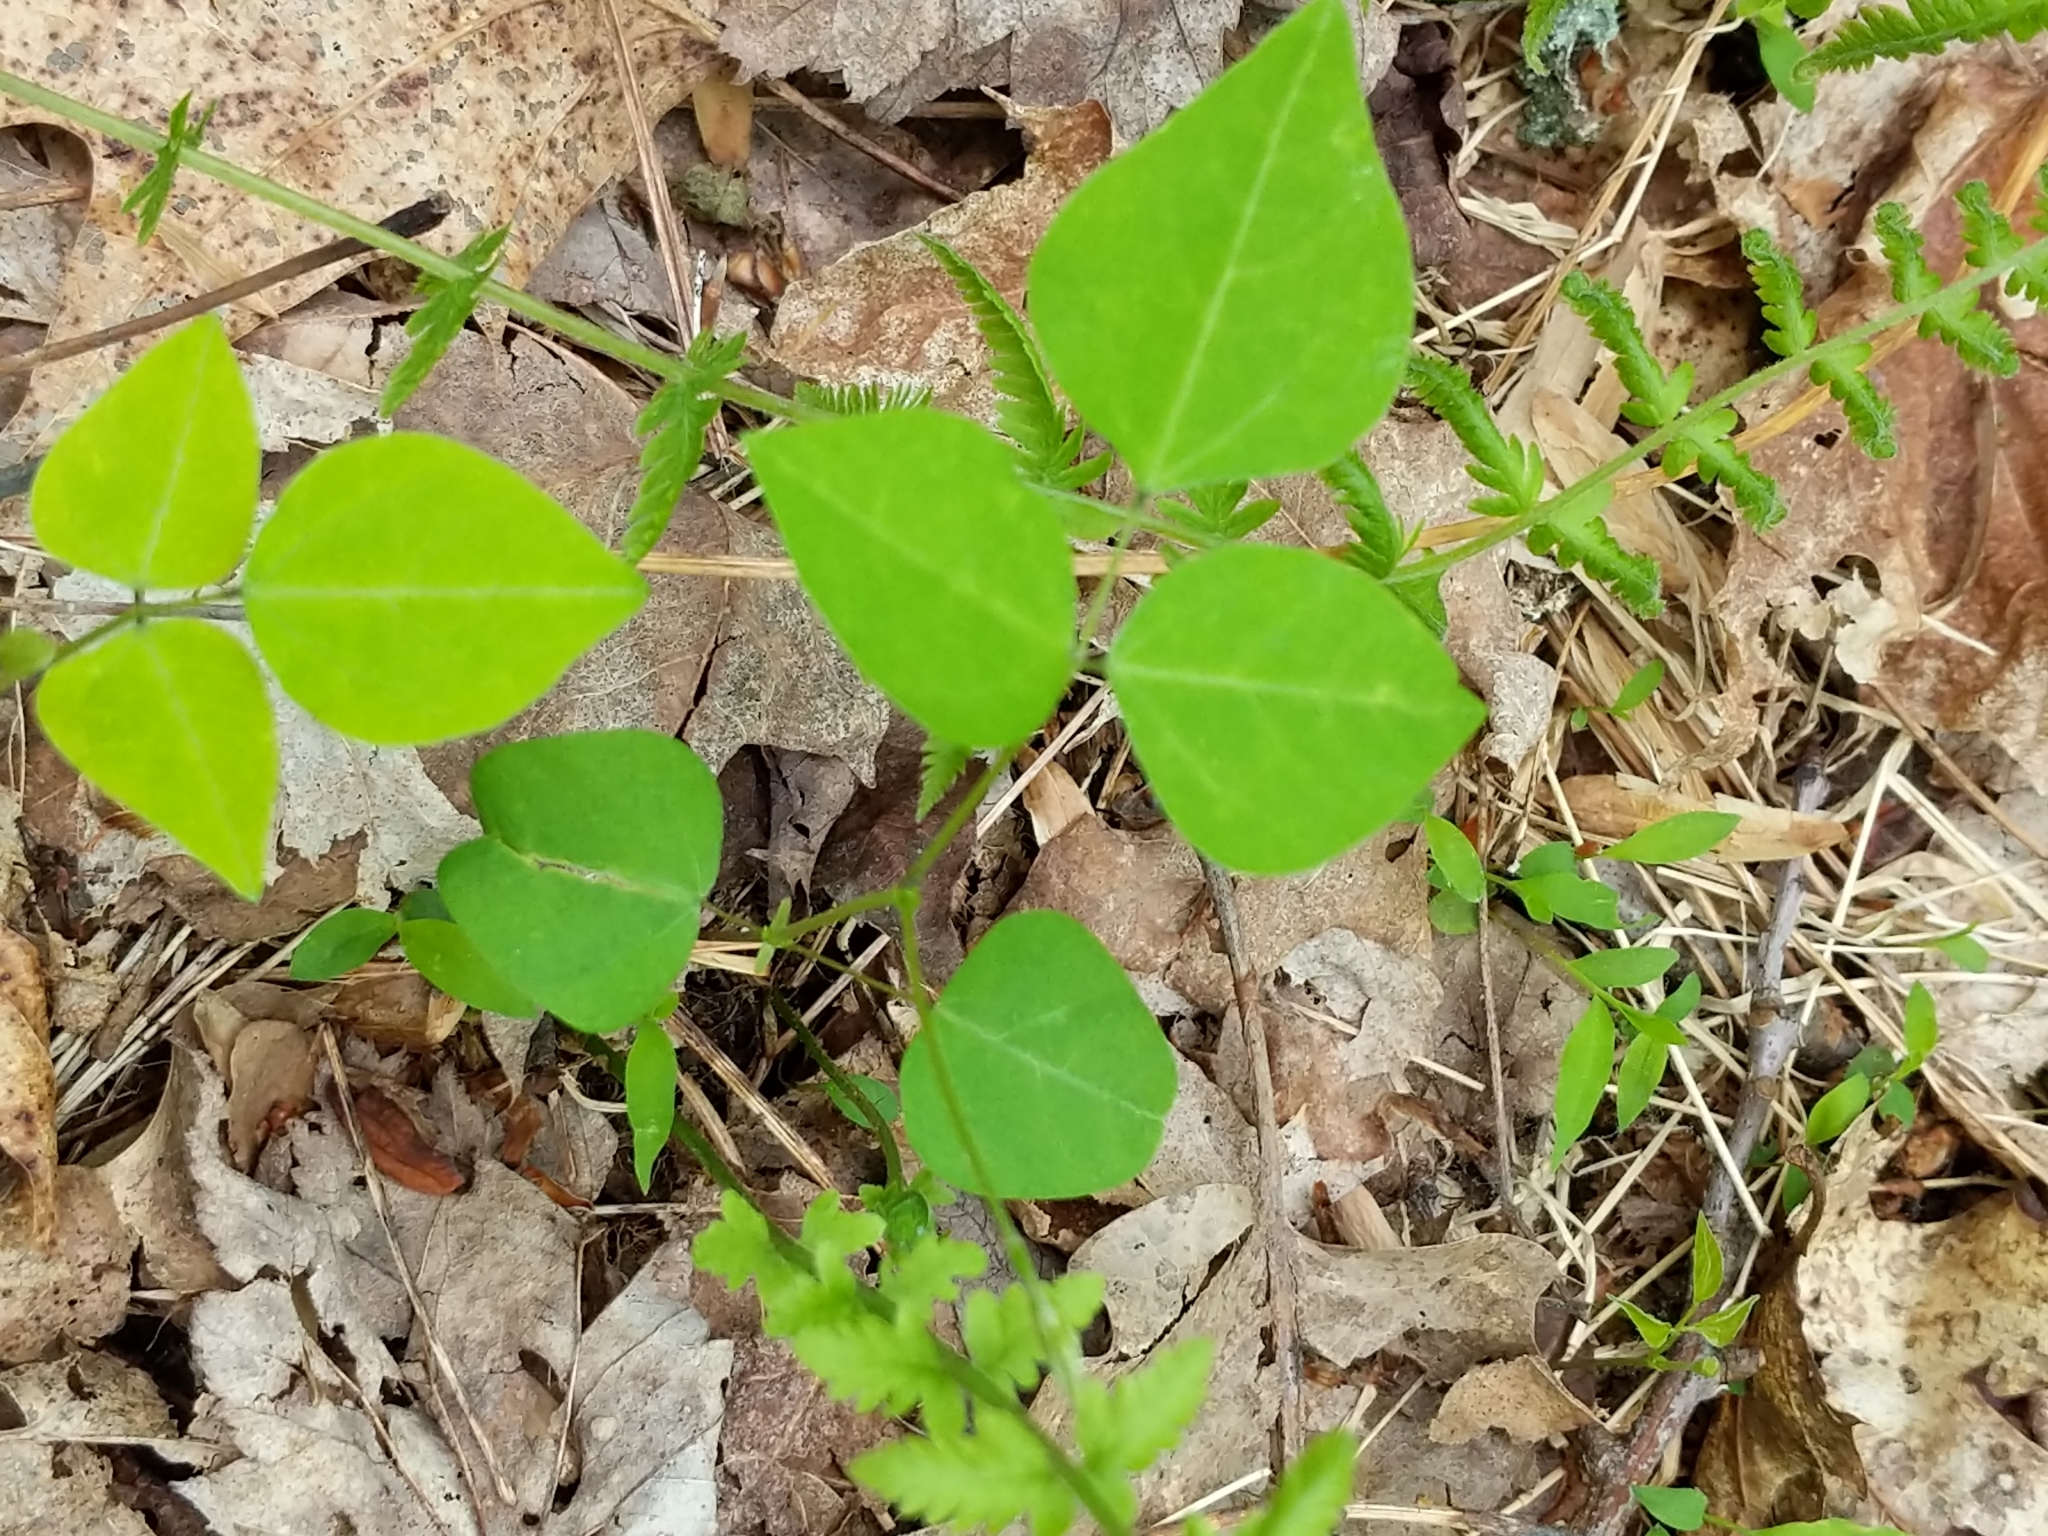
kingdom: Plantae
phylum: Tracheophyta
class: Magnoliopsida
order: Fabales
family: Fabaceae
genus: Amphicarpaea
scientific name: Amphicarpaea bracteata
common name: American hog peanut
